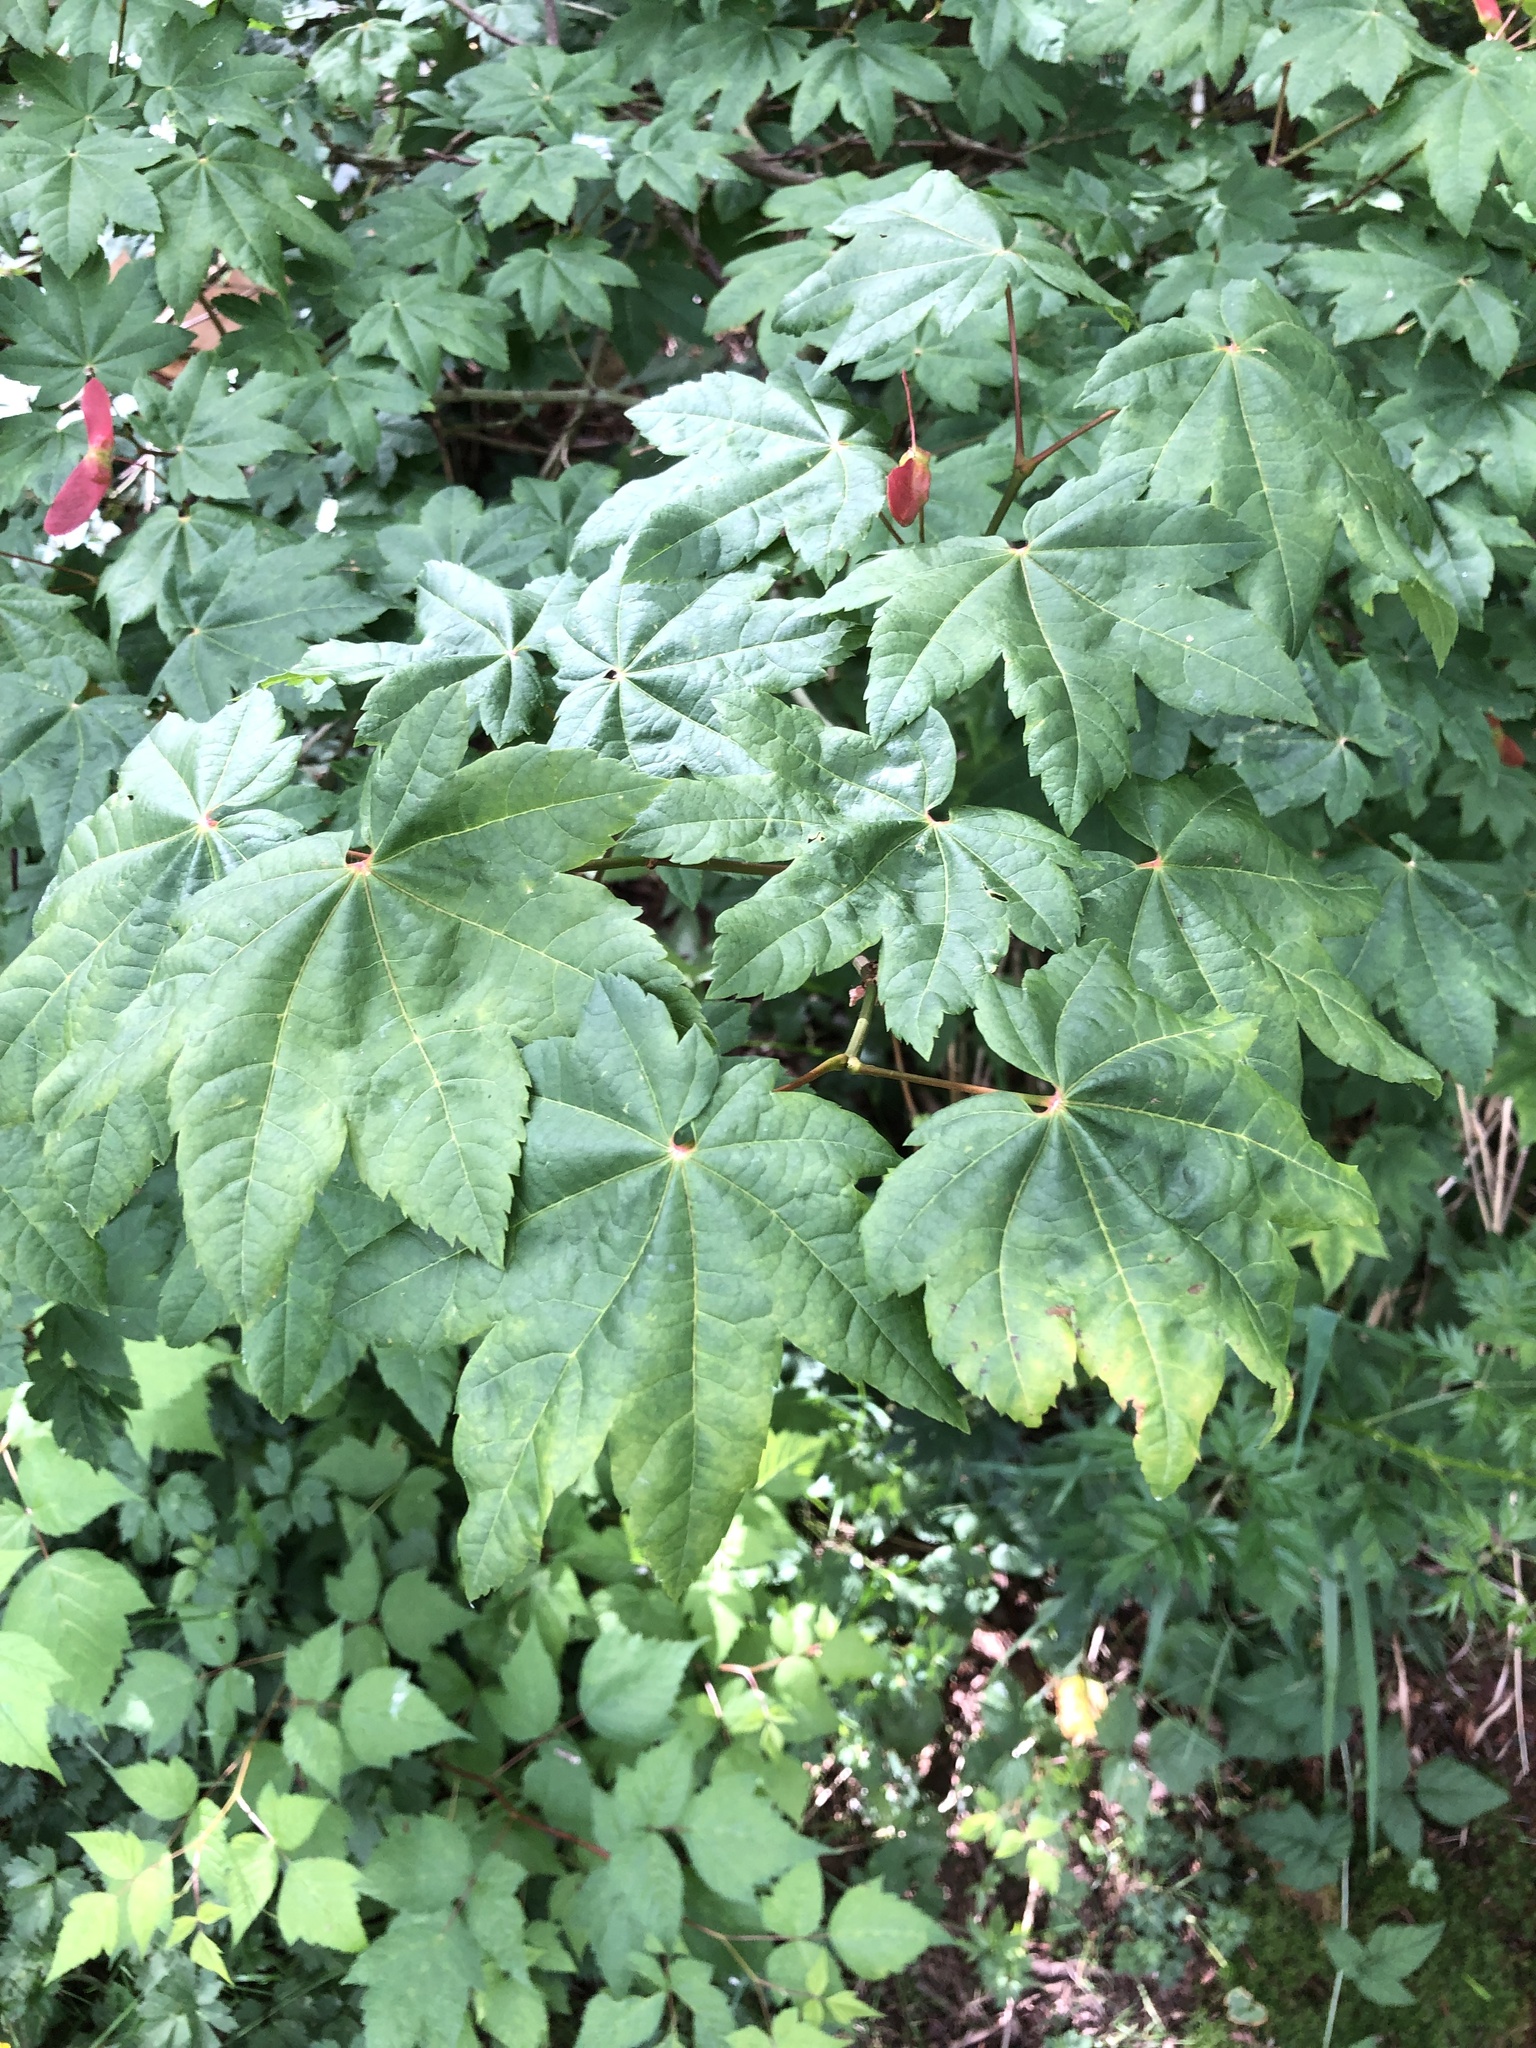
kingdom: Plantae
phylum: Tracheophyta
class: Magnoliopsida
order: Sapindales
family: Sapindaceae
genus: Acer
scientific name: Acer circinatum
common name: Vine maple
